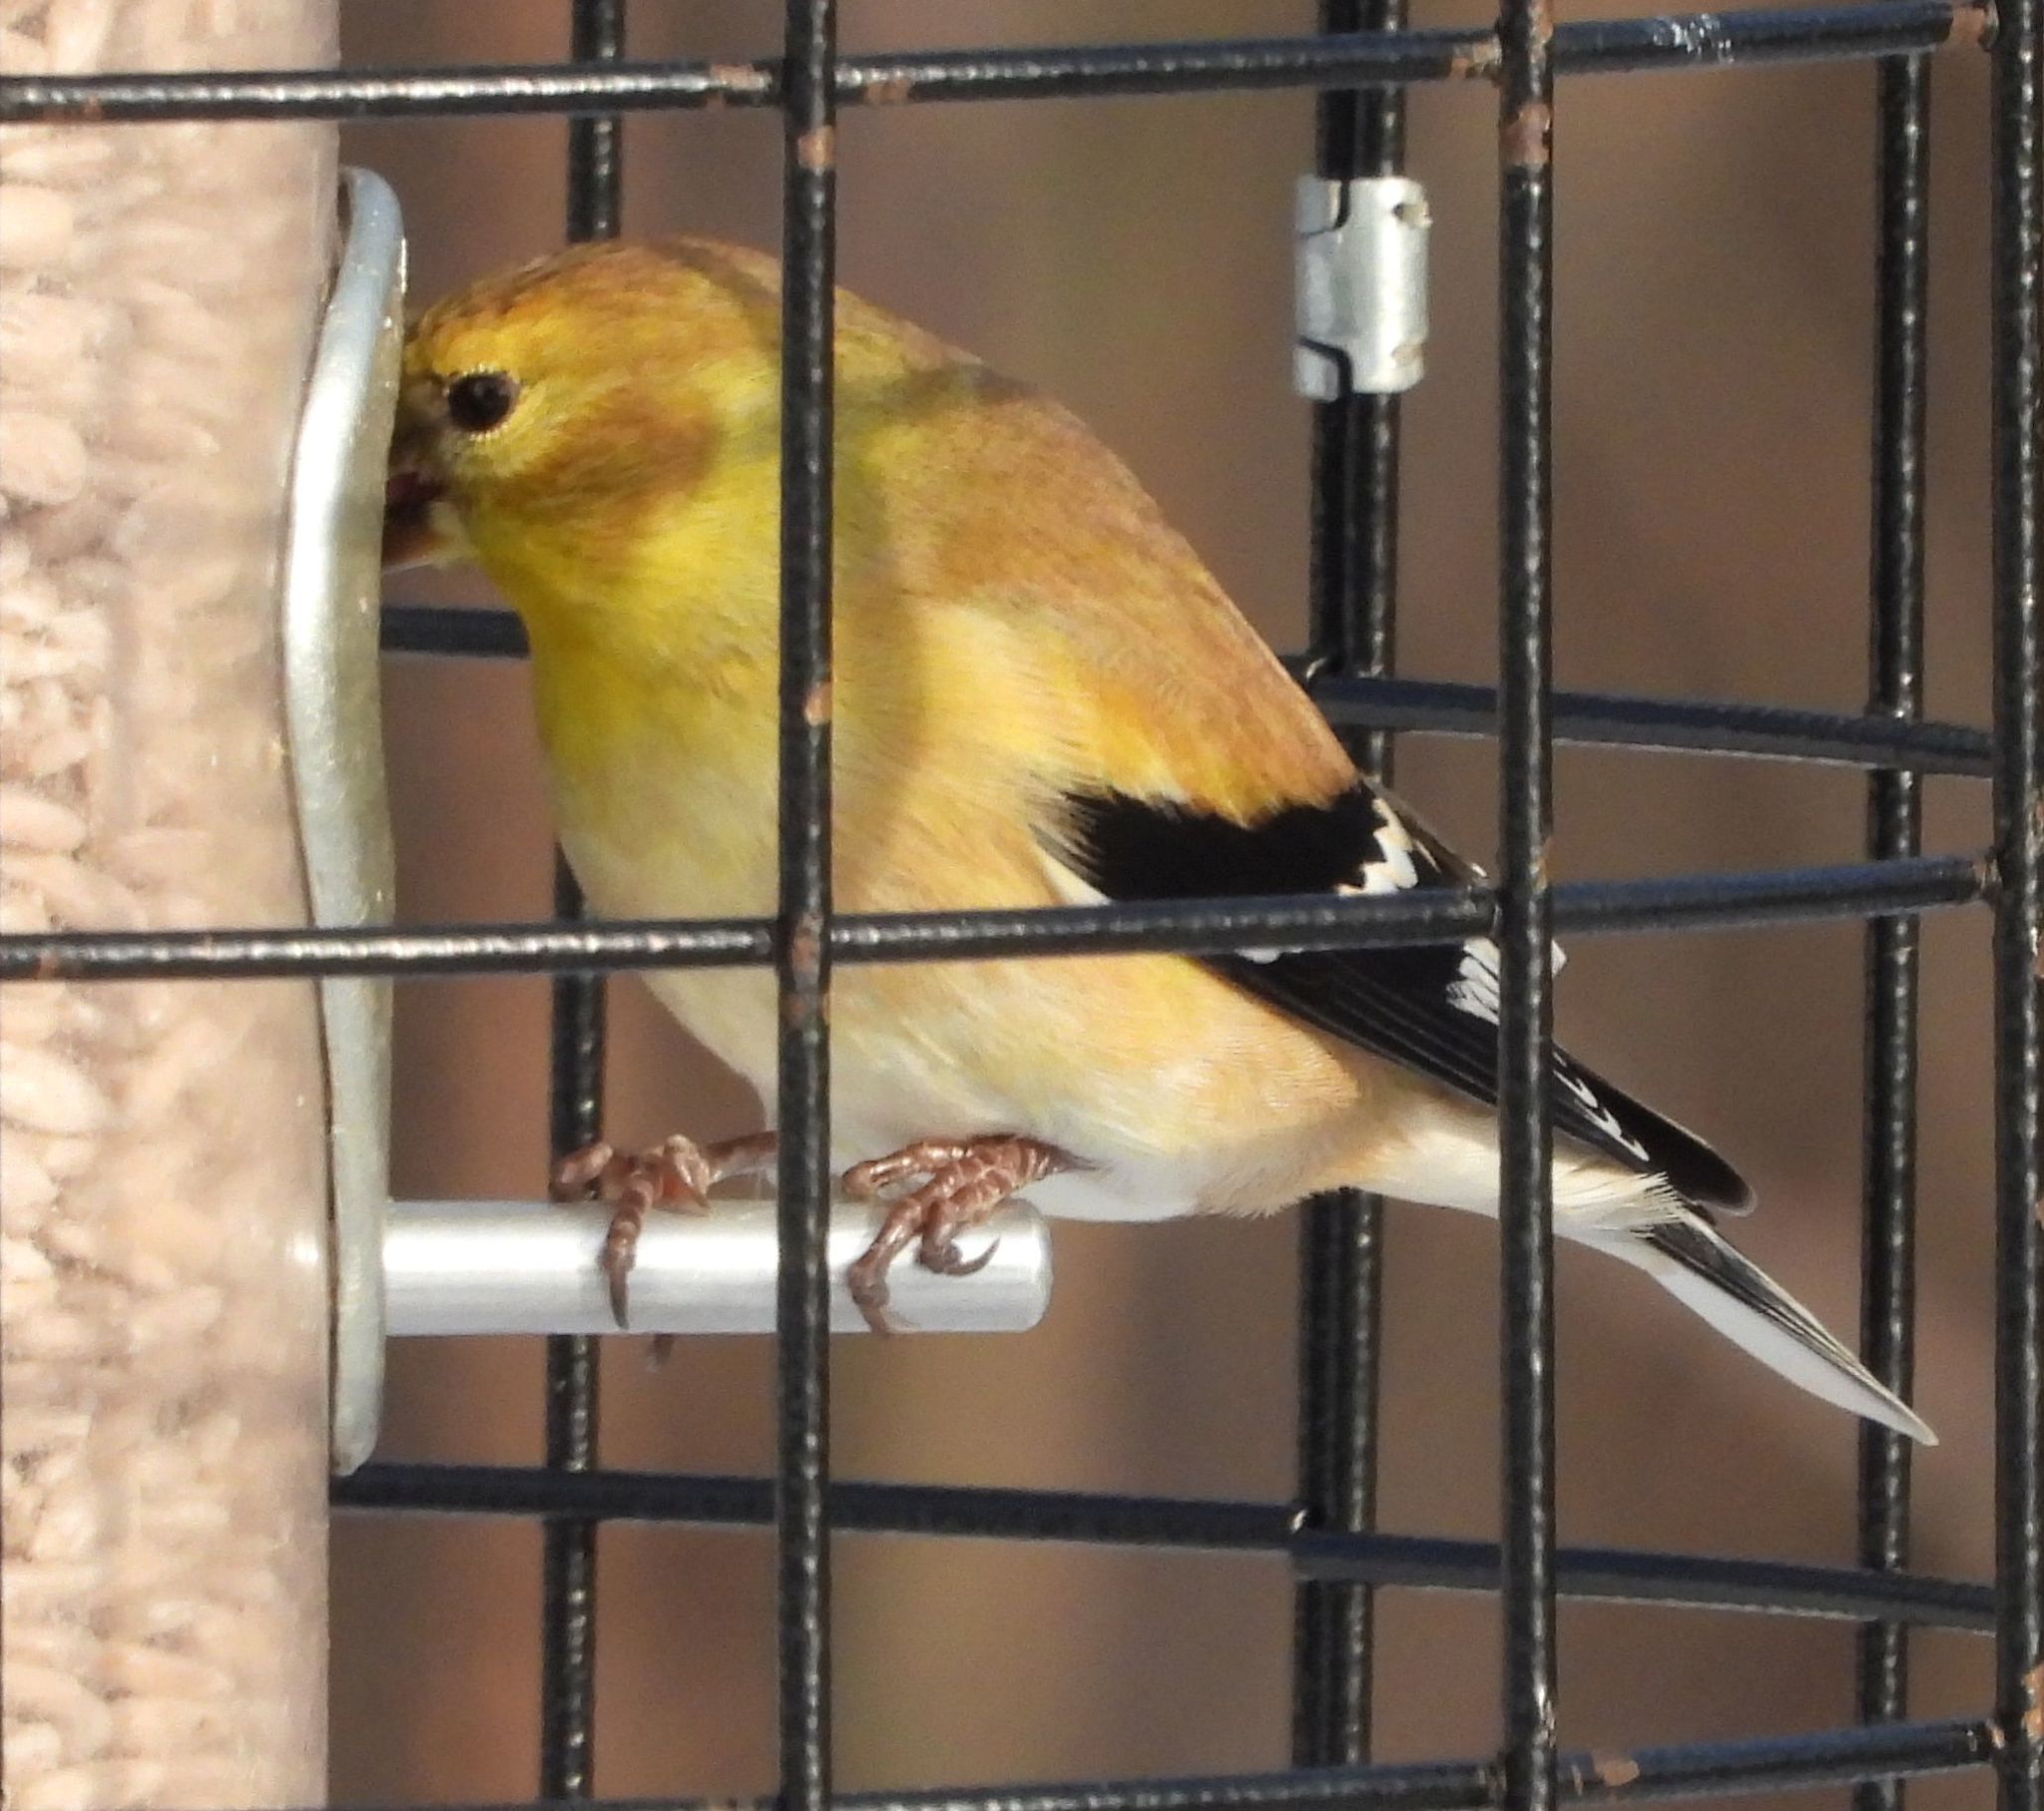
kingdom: Animalia
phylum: Chordata
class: Aves
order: Passeriformes
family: Fringillidae
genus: Spinus
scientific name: Spinus tristis
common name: American goldfinch
